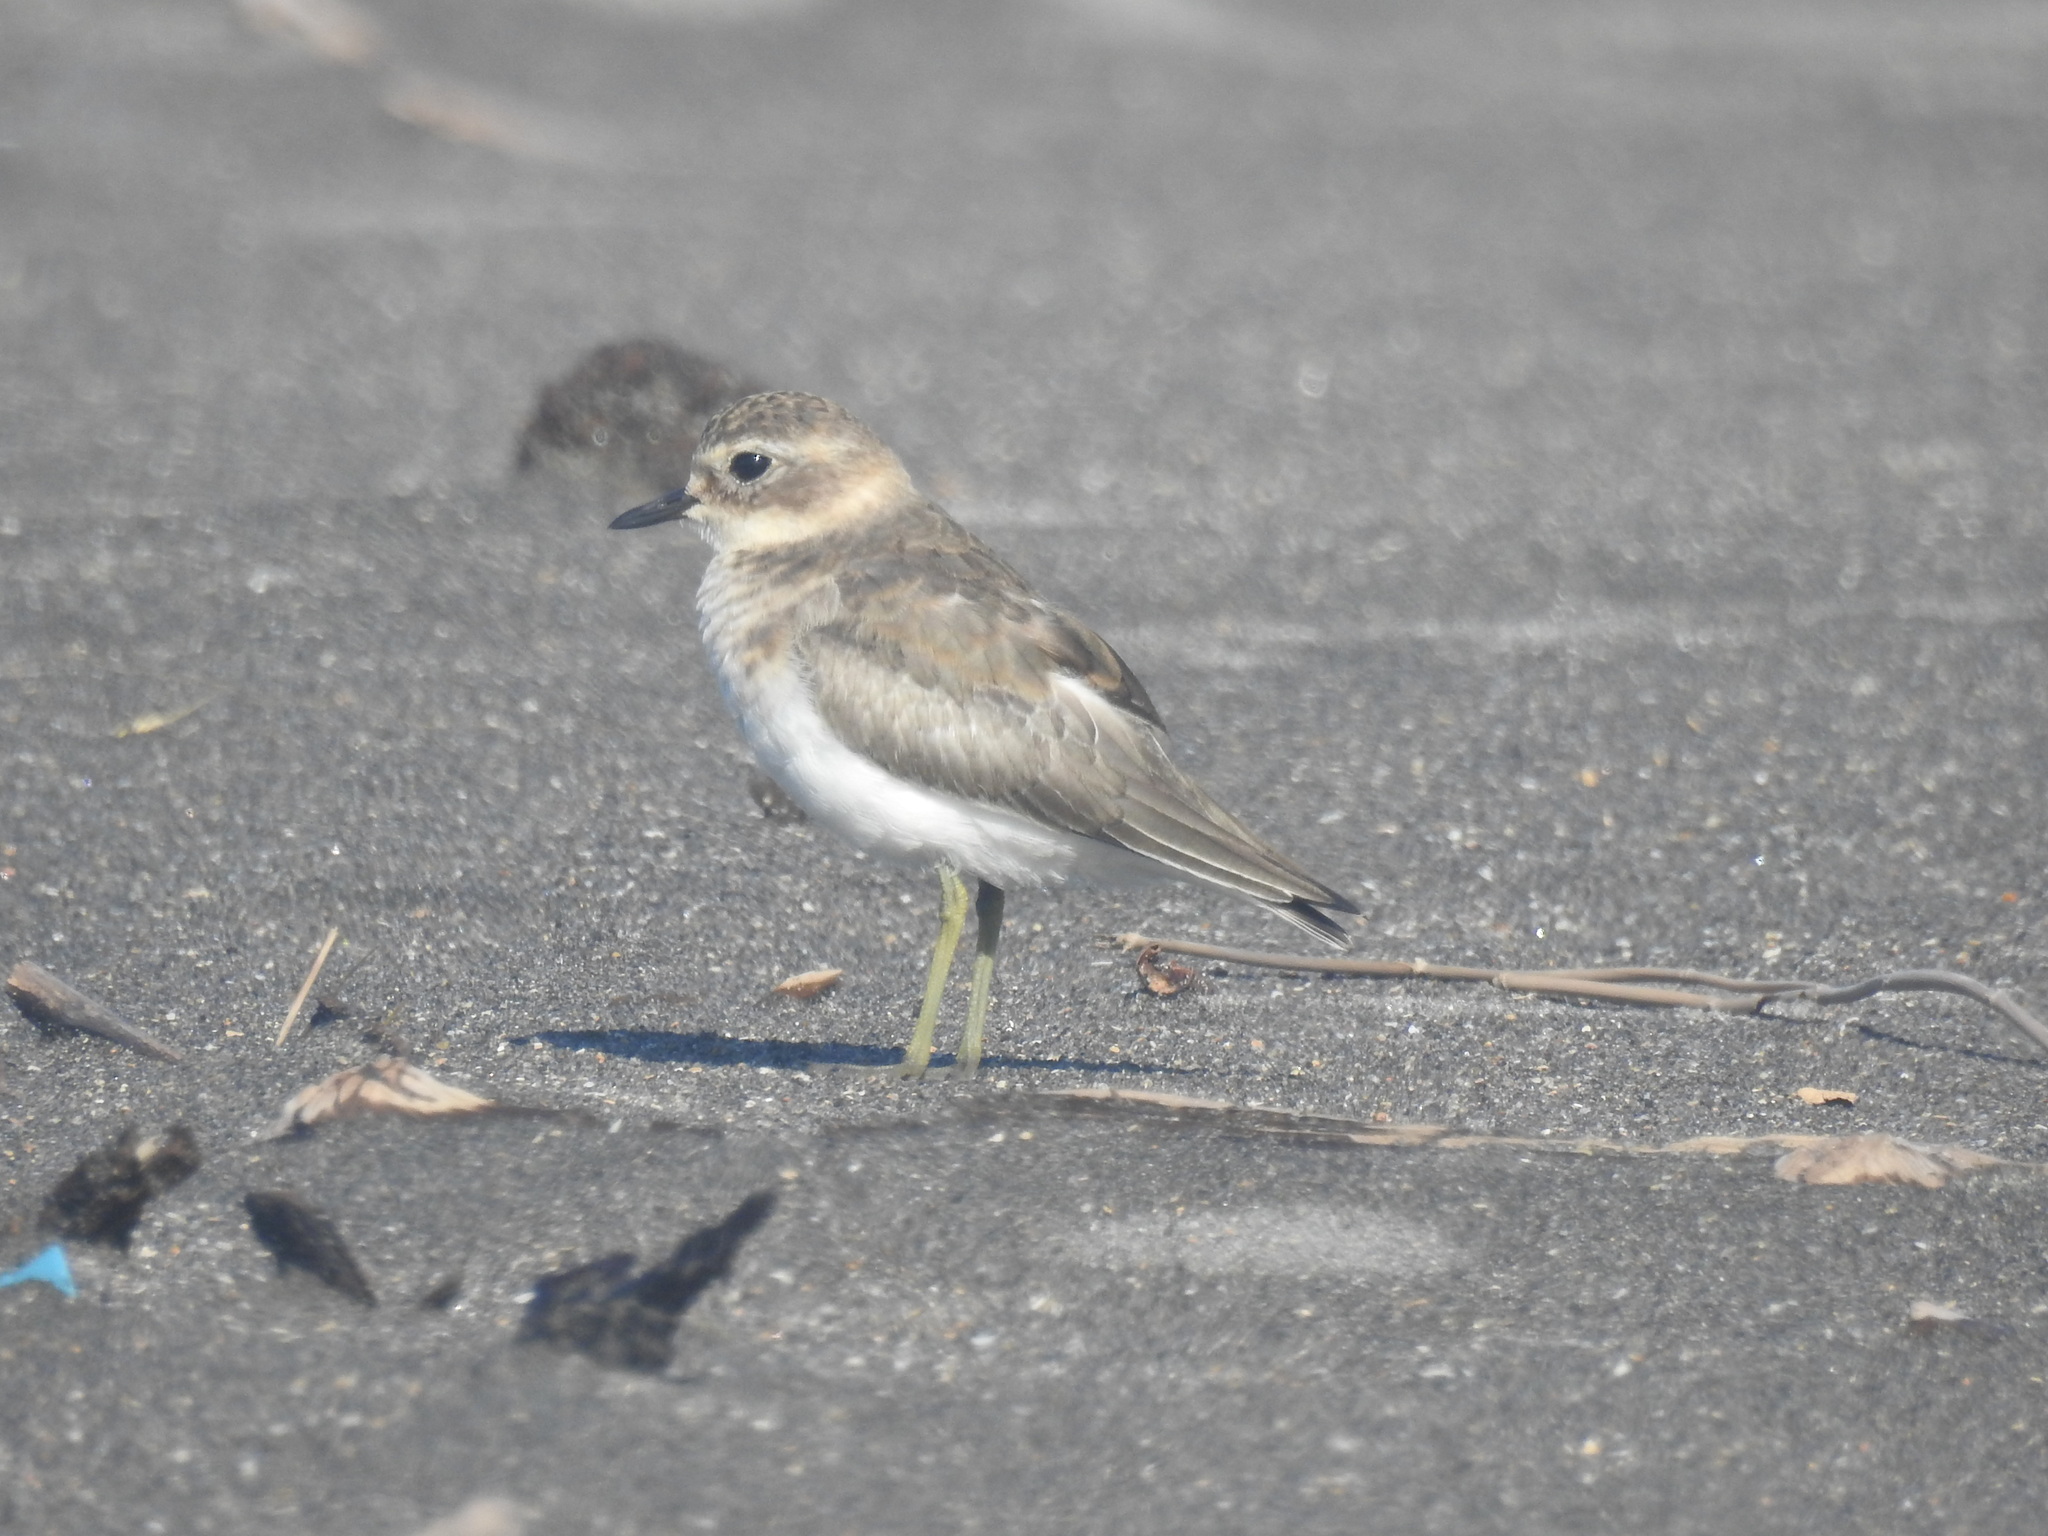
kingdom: Animalia
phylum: Chordata
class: Aves
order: Charadriiformes
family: Charadriidae
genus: Anarhynchus
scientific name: Anarhynchus
